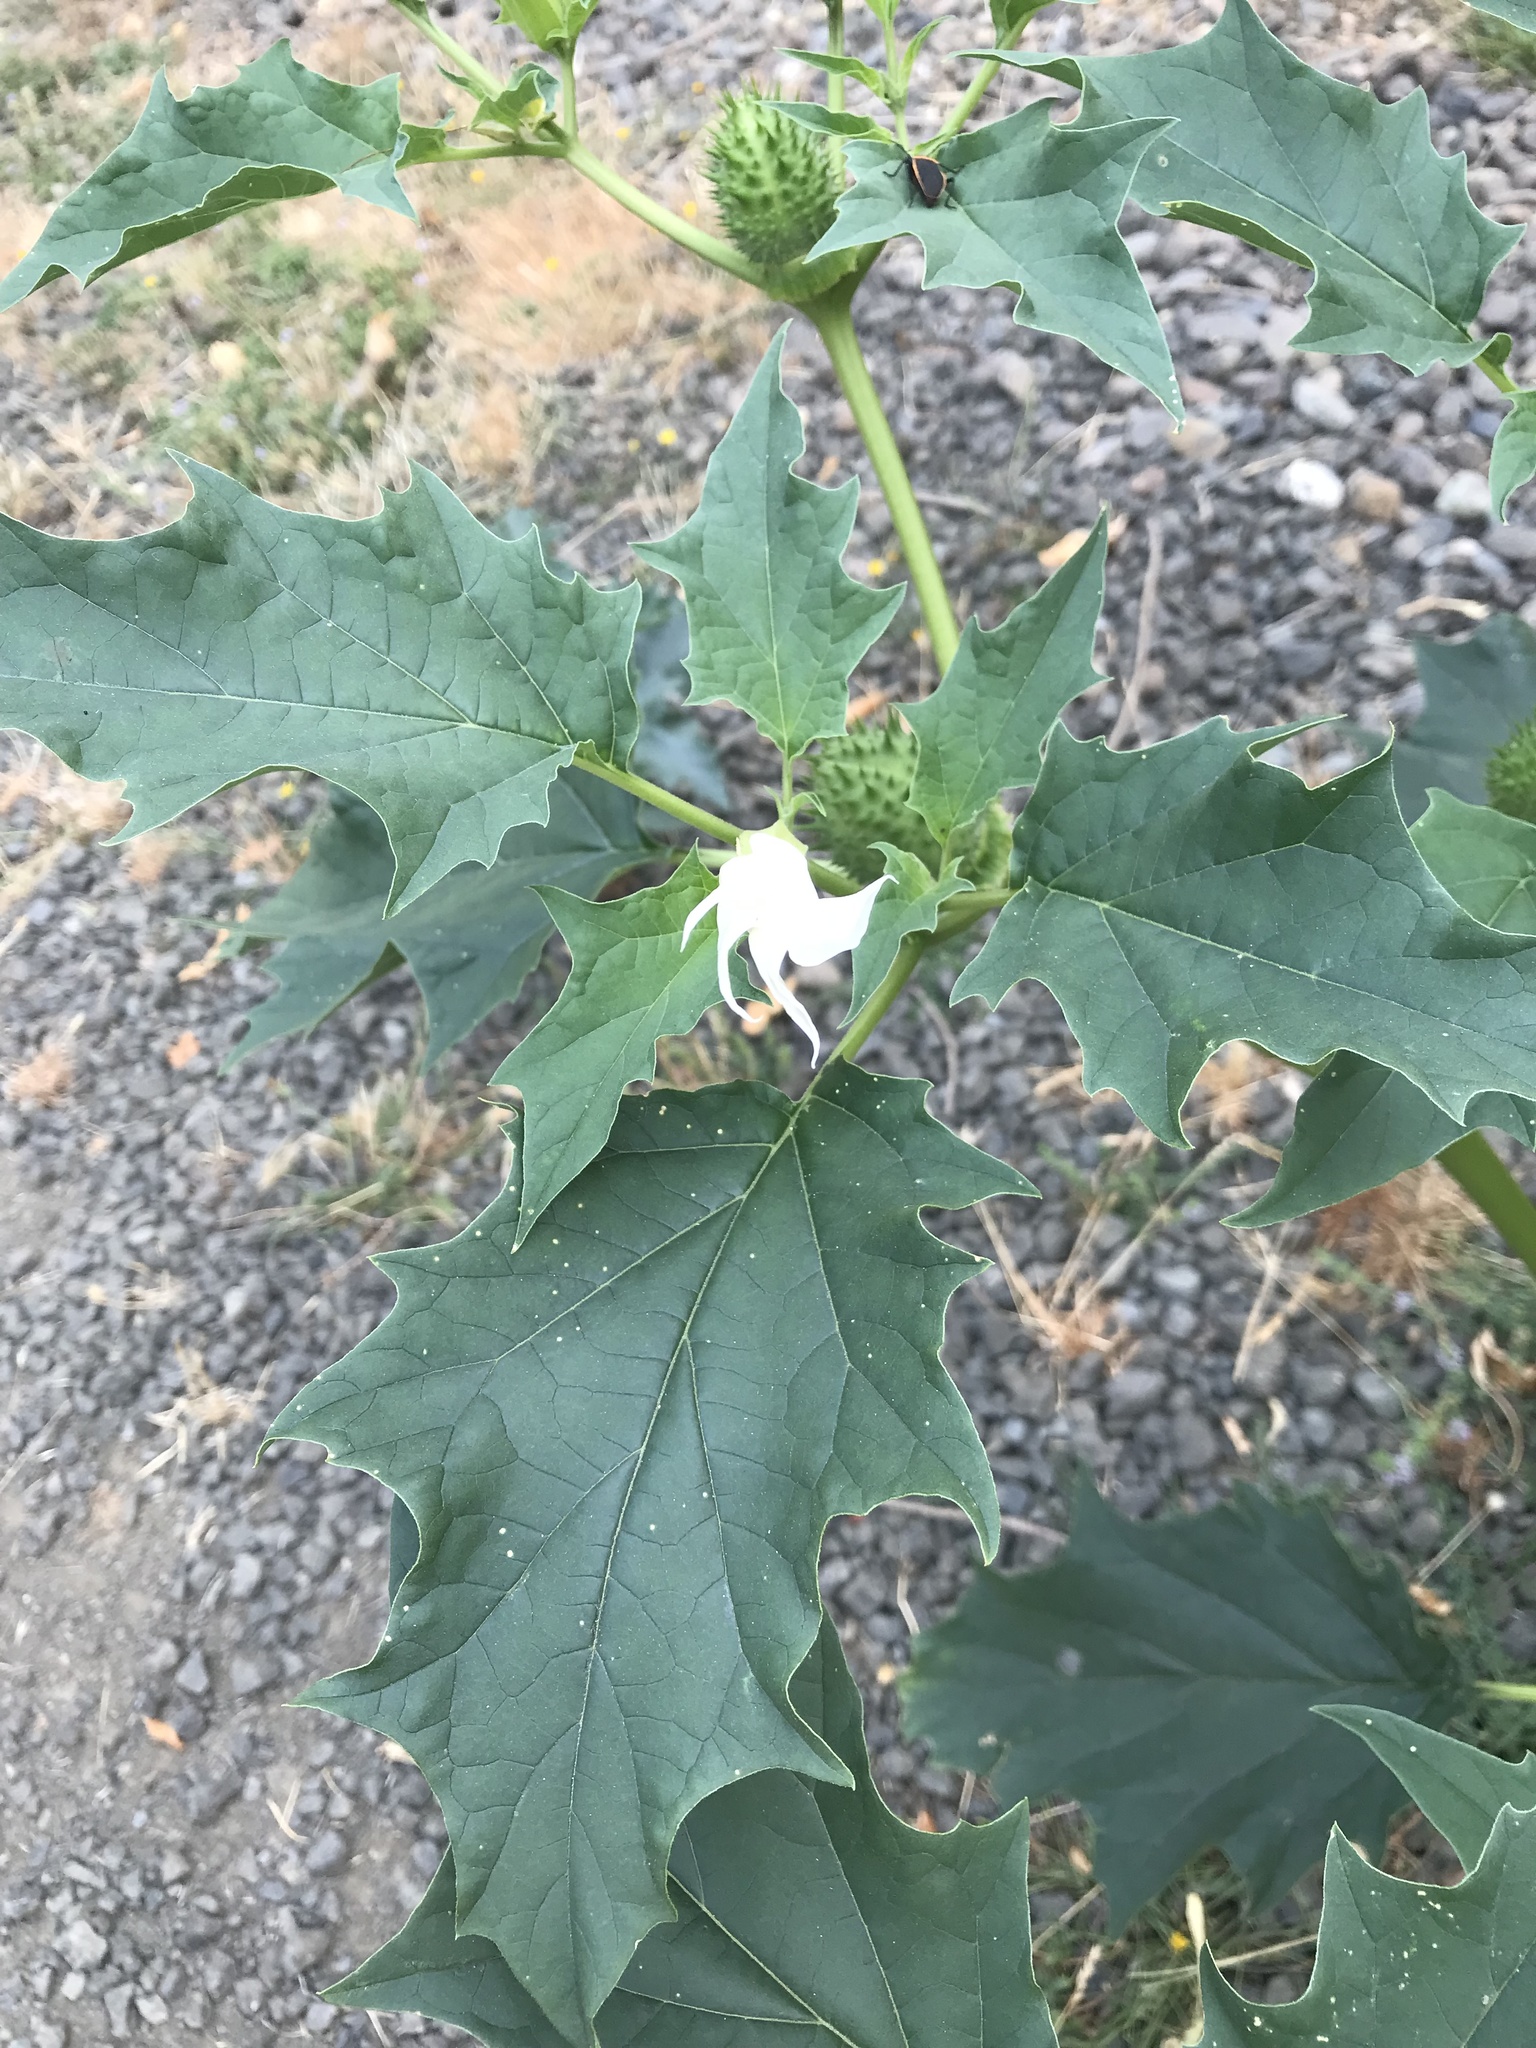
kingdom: Plantae
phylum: Tracheophyta
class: Magnoliopsida
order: Solanales
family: Solanaceae
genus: Datura
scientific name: Datura stramonium
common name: Thorn-apple
